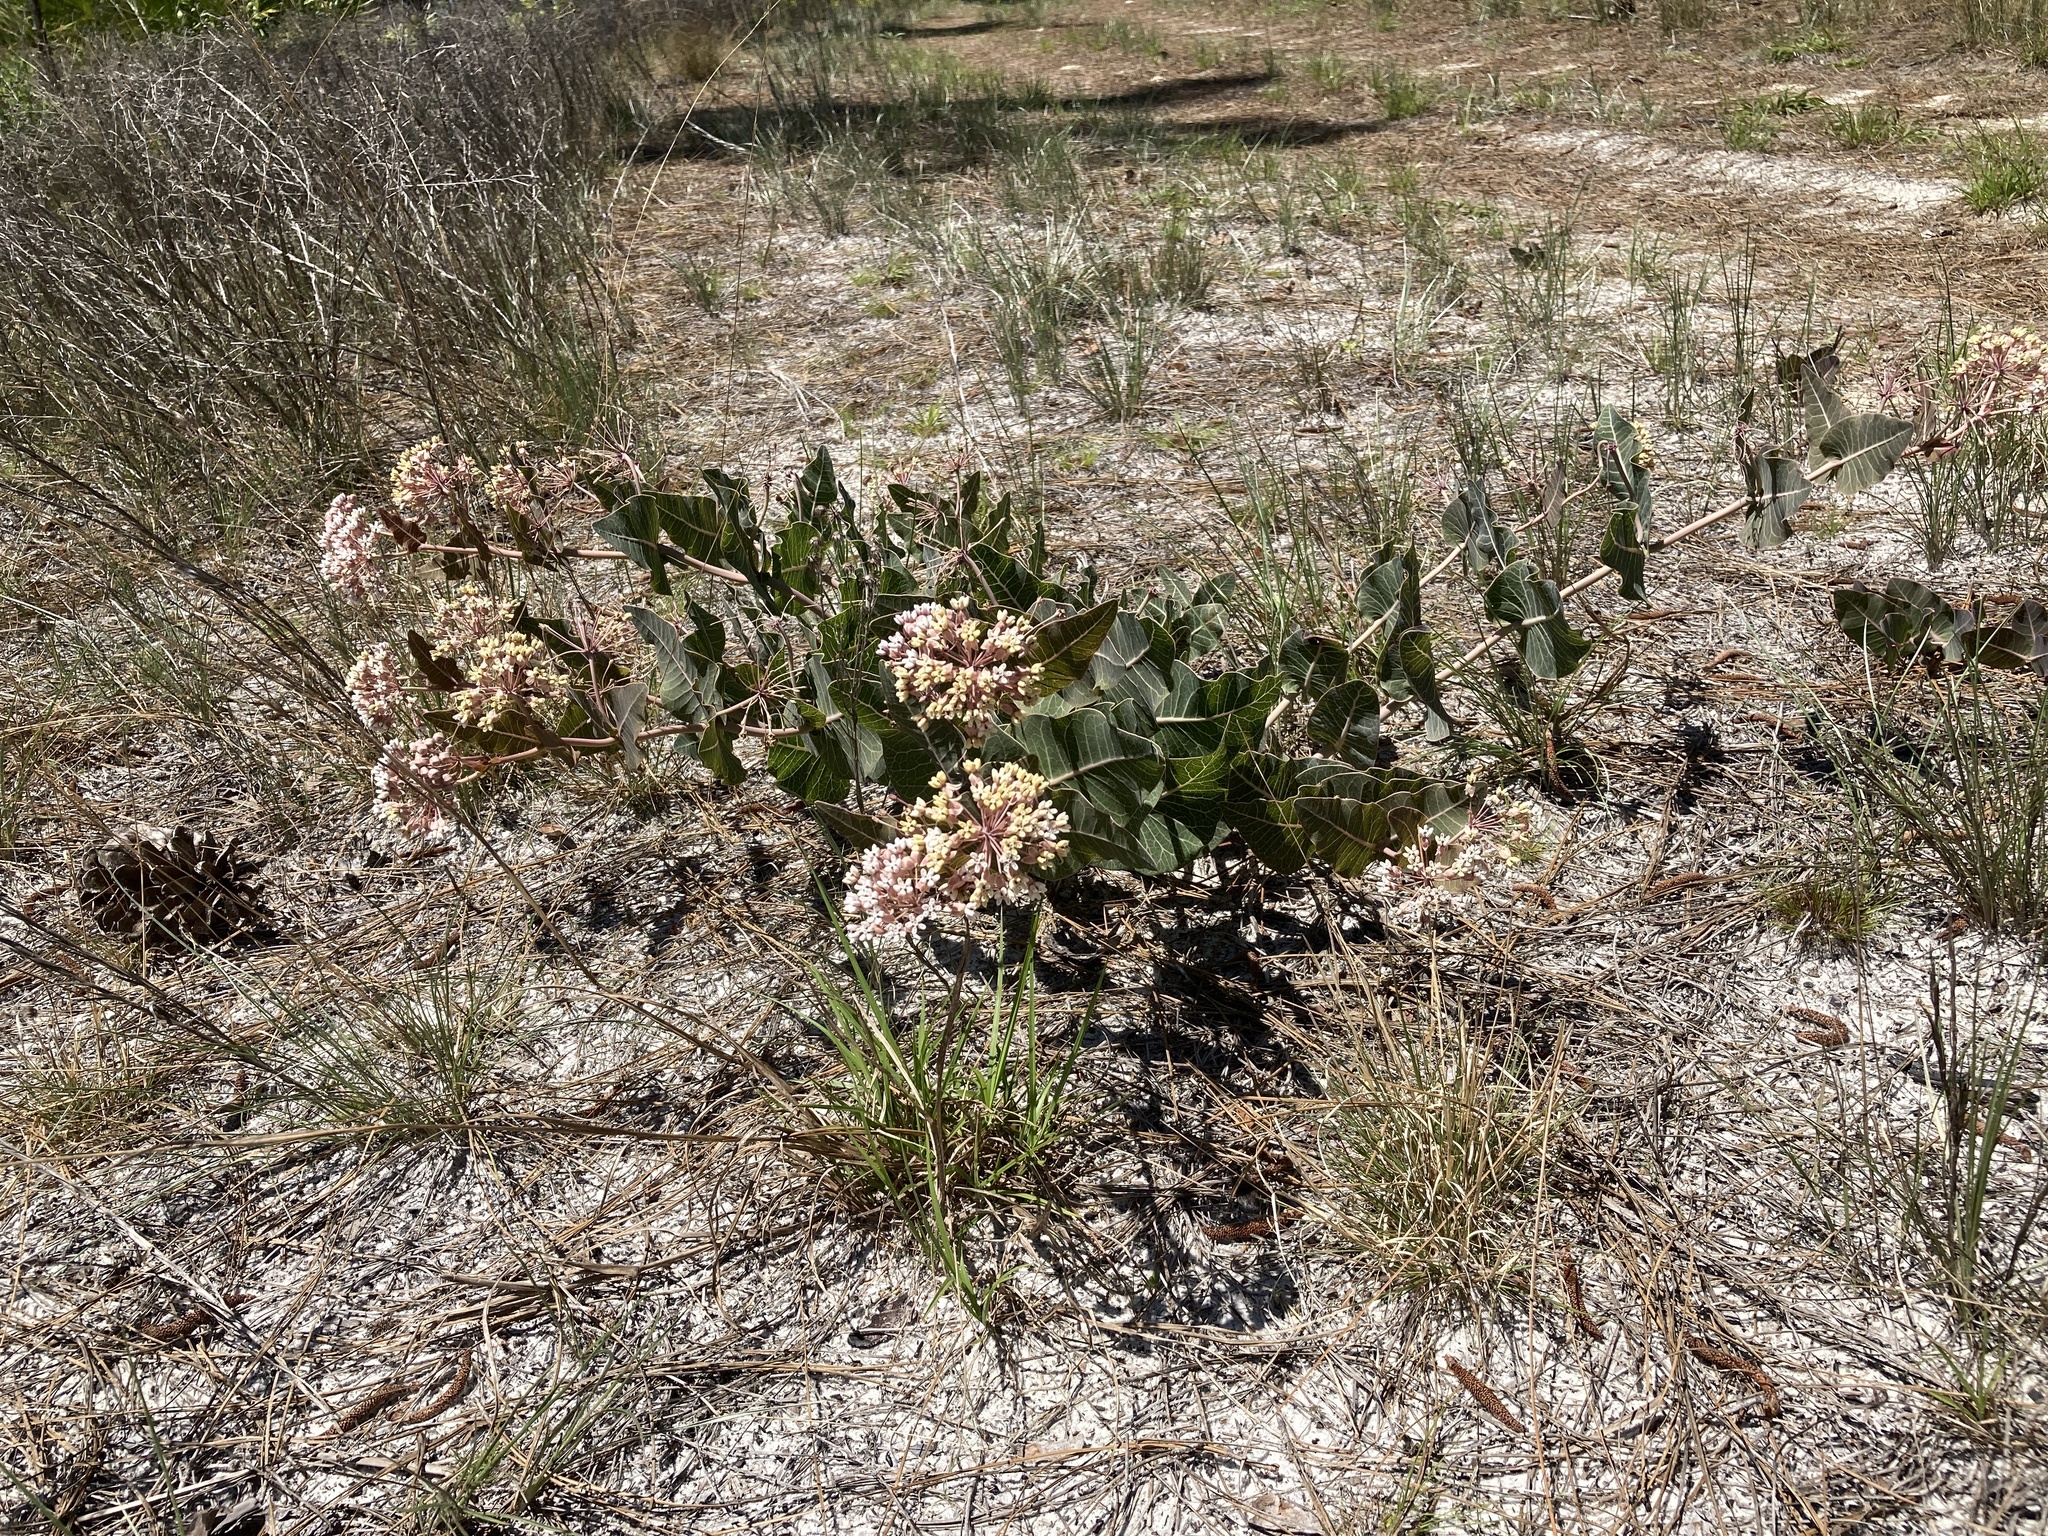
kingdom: Plantae
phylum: Tracheophyta
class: Magnoliopsida
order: Gentianales
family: Apocynaceae
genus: Asclepias
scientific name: Asclepias humistrata
